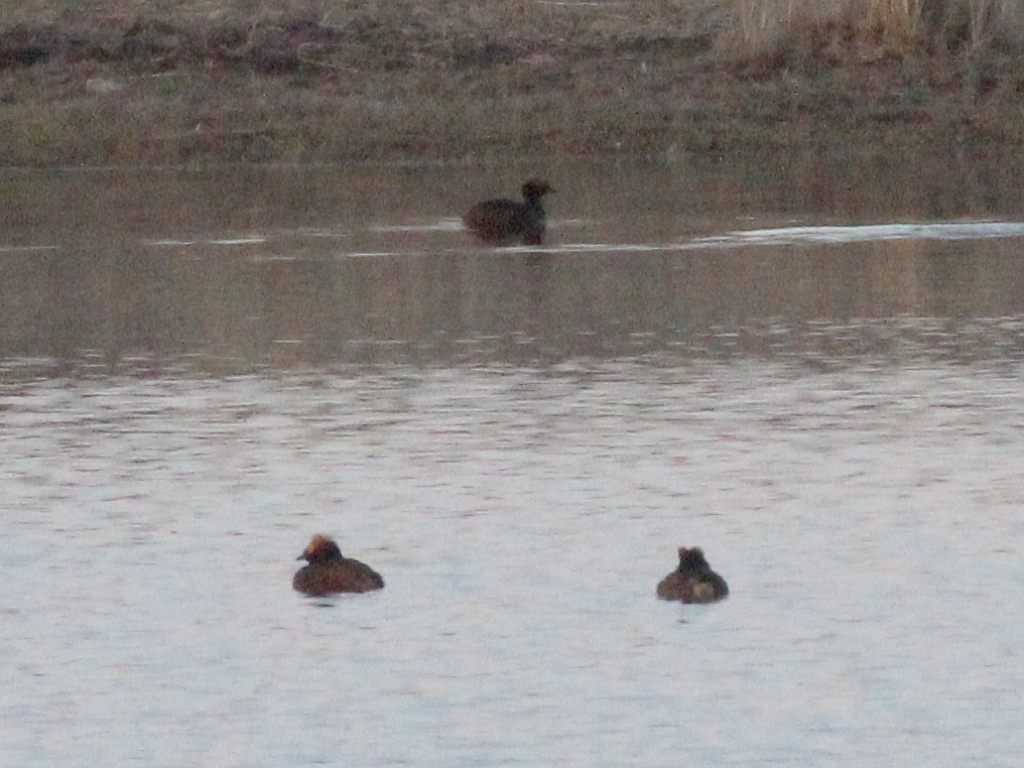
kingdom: Animalia
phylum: Chordata
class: Aves
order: Podicipediformes
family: Podicipedidae
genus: Podiceps
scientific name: Podiceps auritus
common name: Horned grebe
